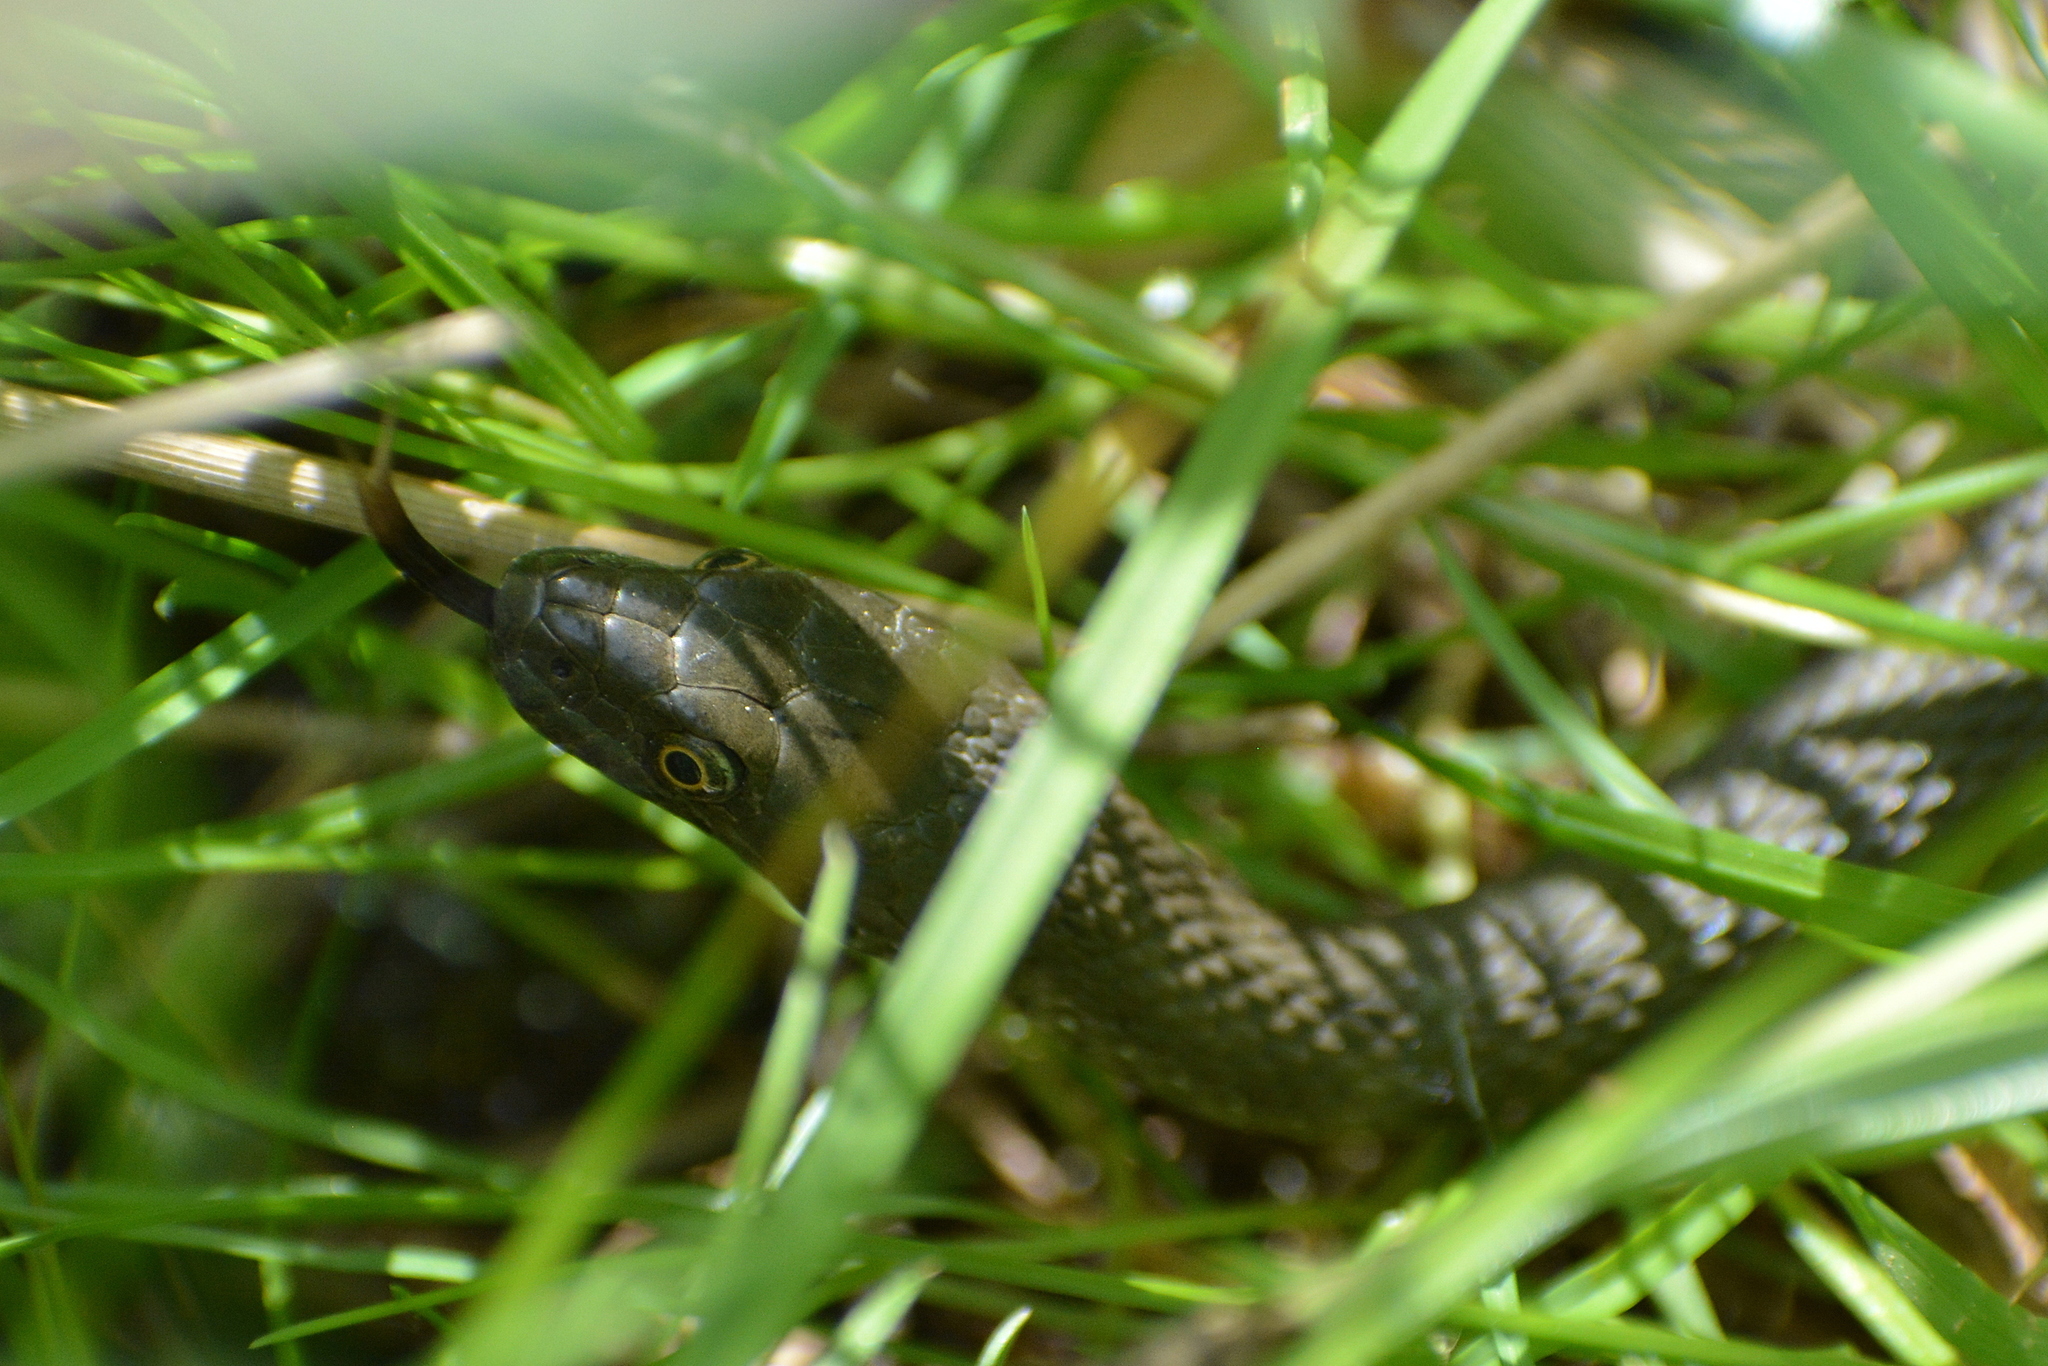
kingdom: Animalia
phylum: Chordata
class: Squamata
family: Colubridae
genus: Natrix
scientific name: Natrix tessellata
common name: Dice snake
